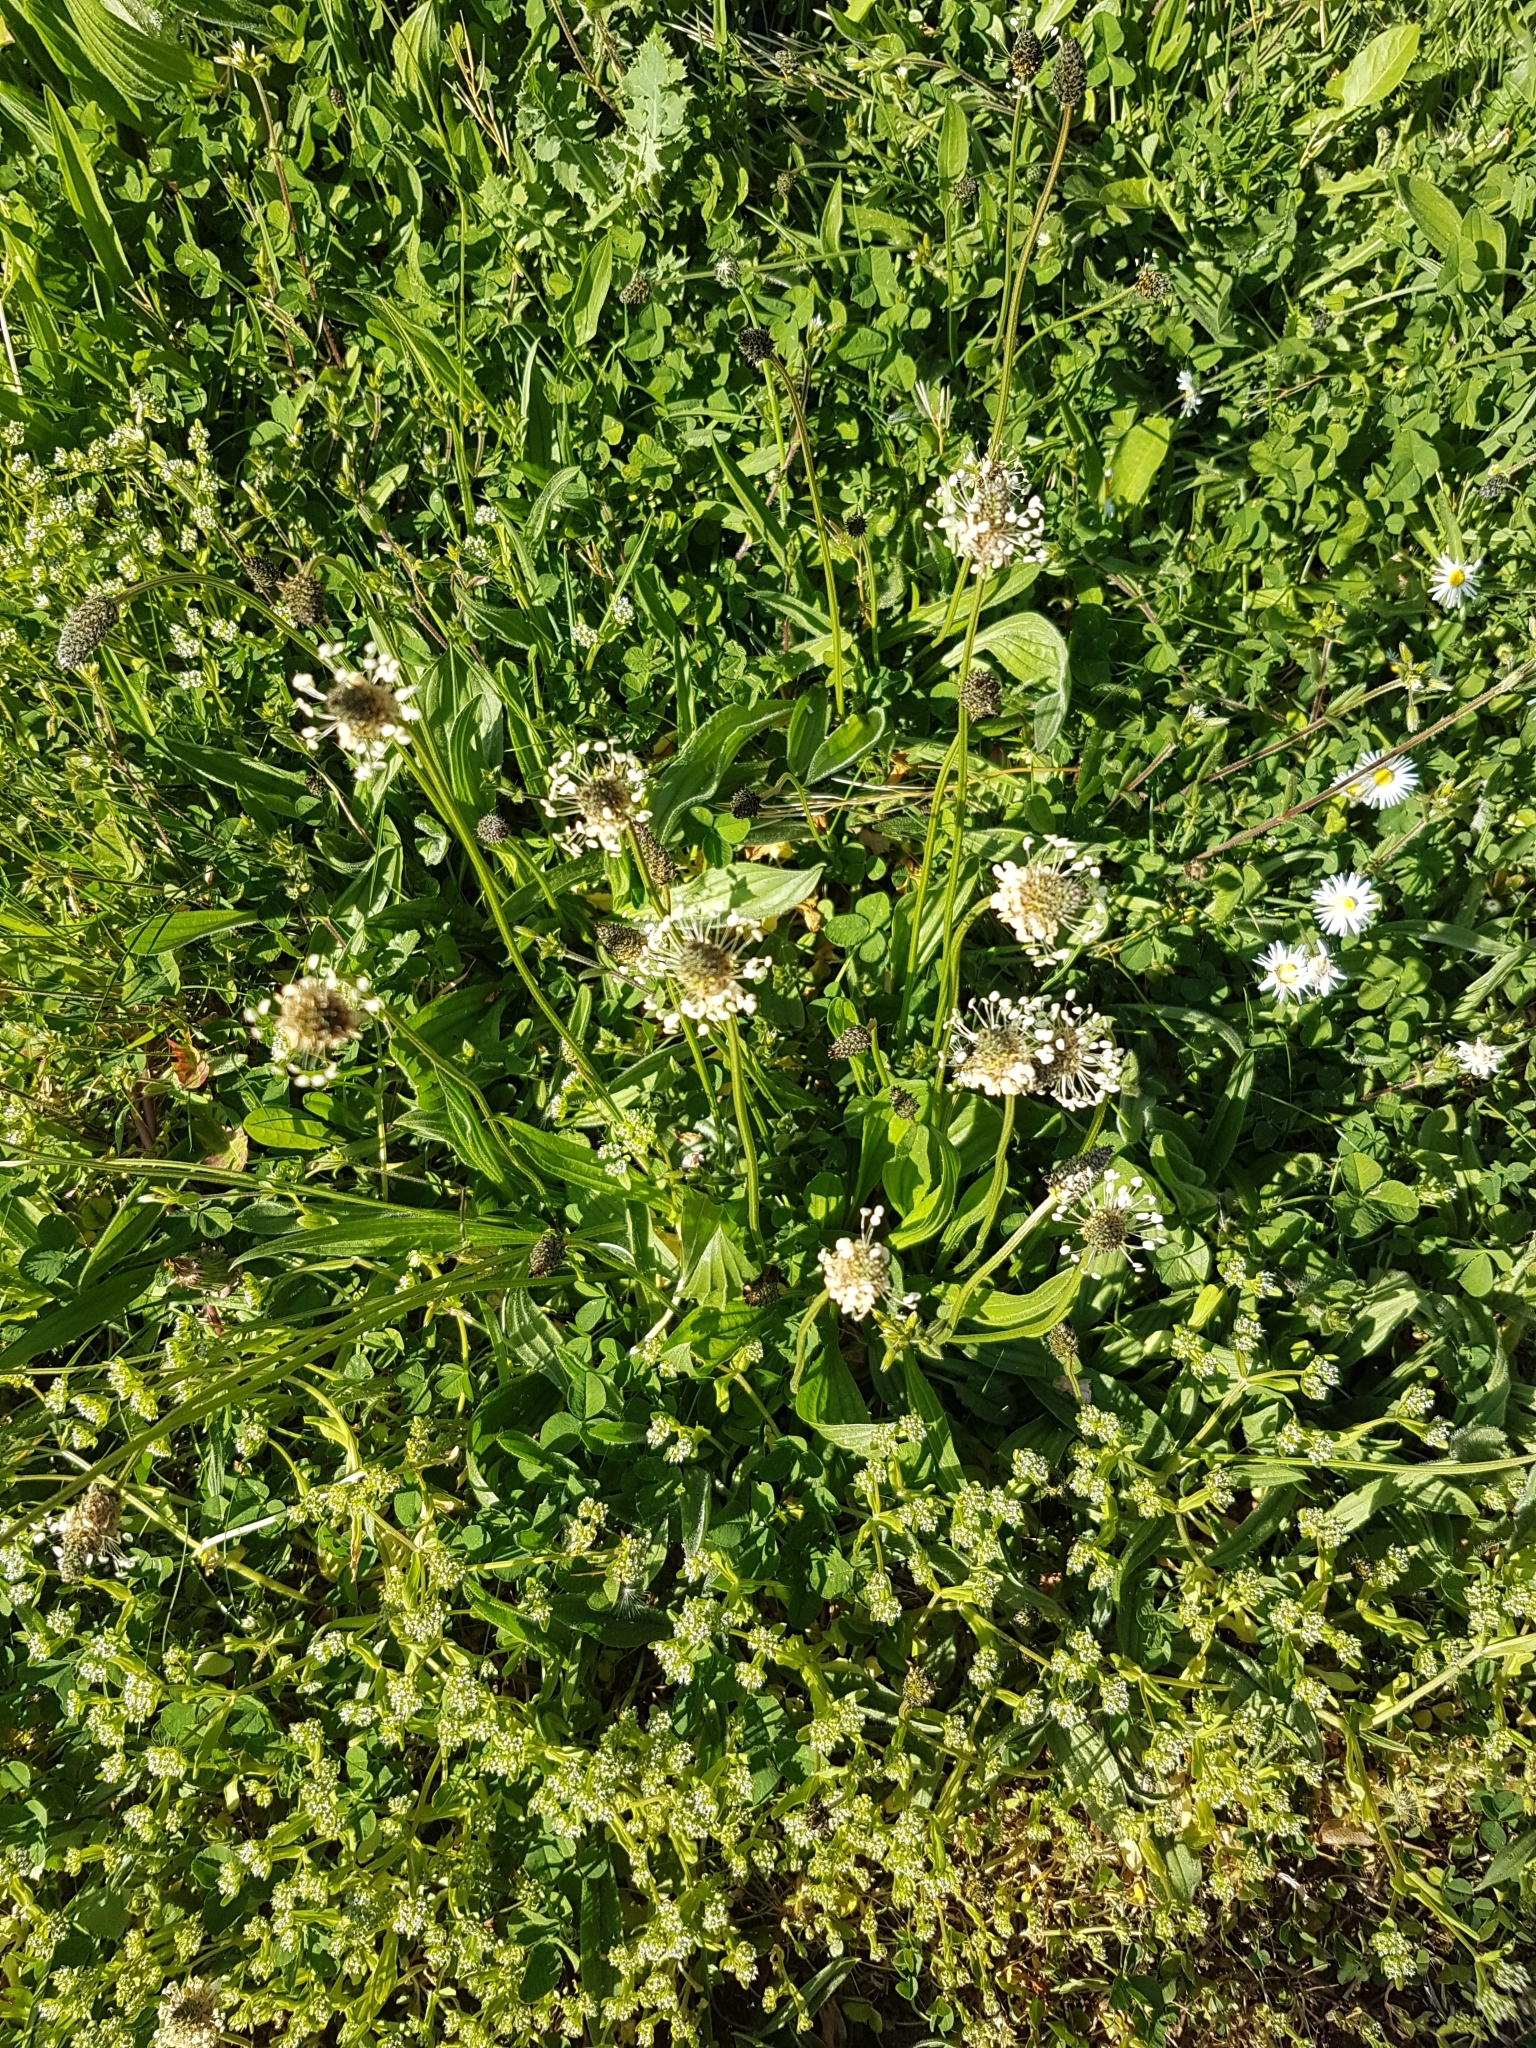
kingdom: Plantae
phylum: Tracheophyta
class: Magnoliopsida
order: Lamiales
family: Plantaginaceae
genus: Plantago
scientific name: Plantago lanceolata
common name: Ribwort plantain
